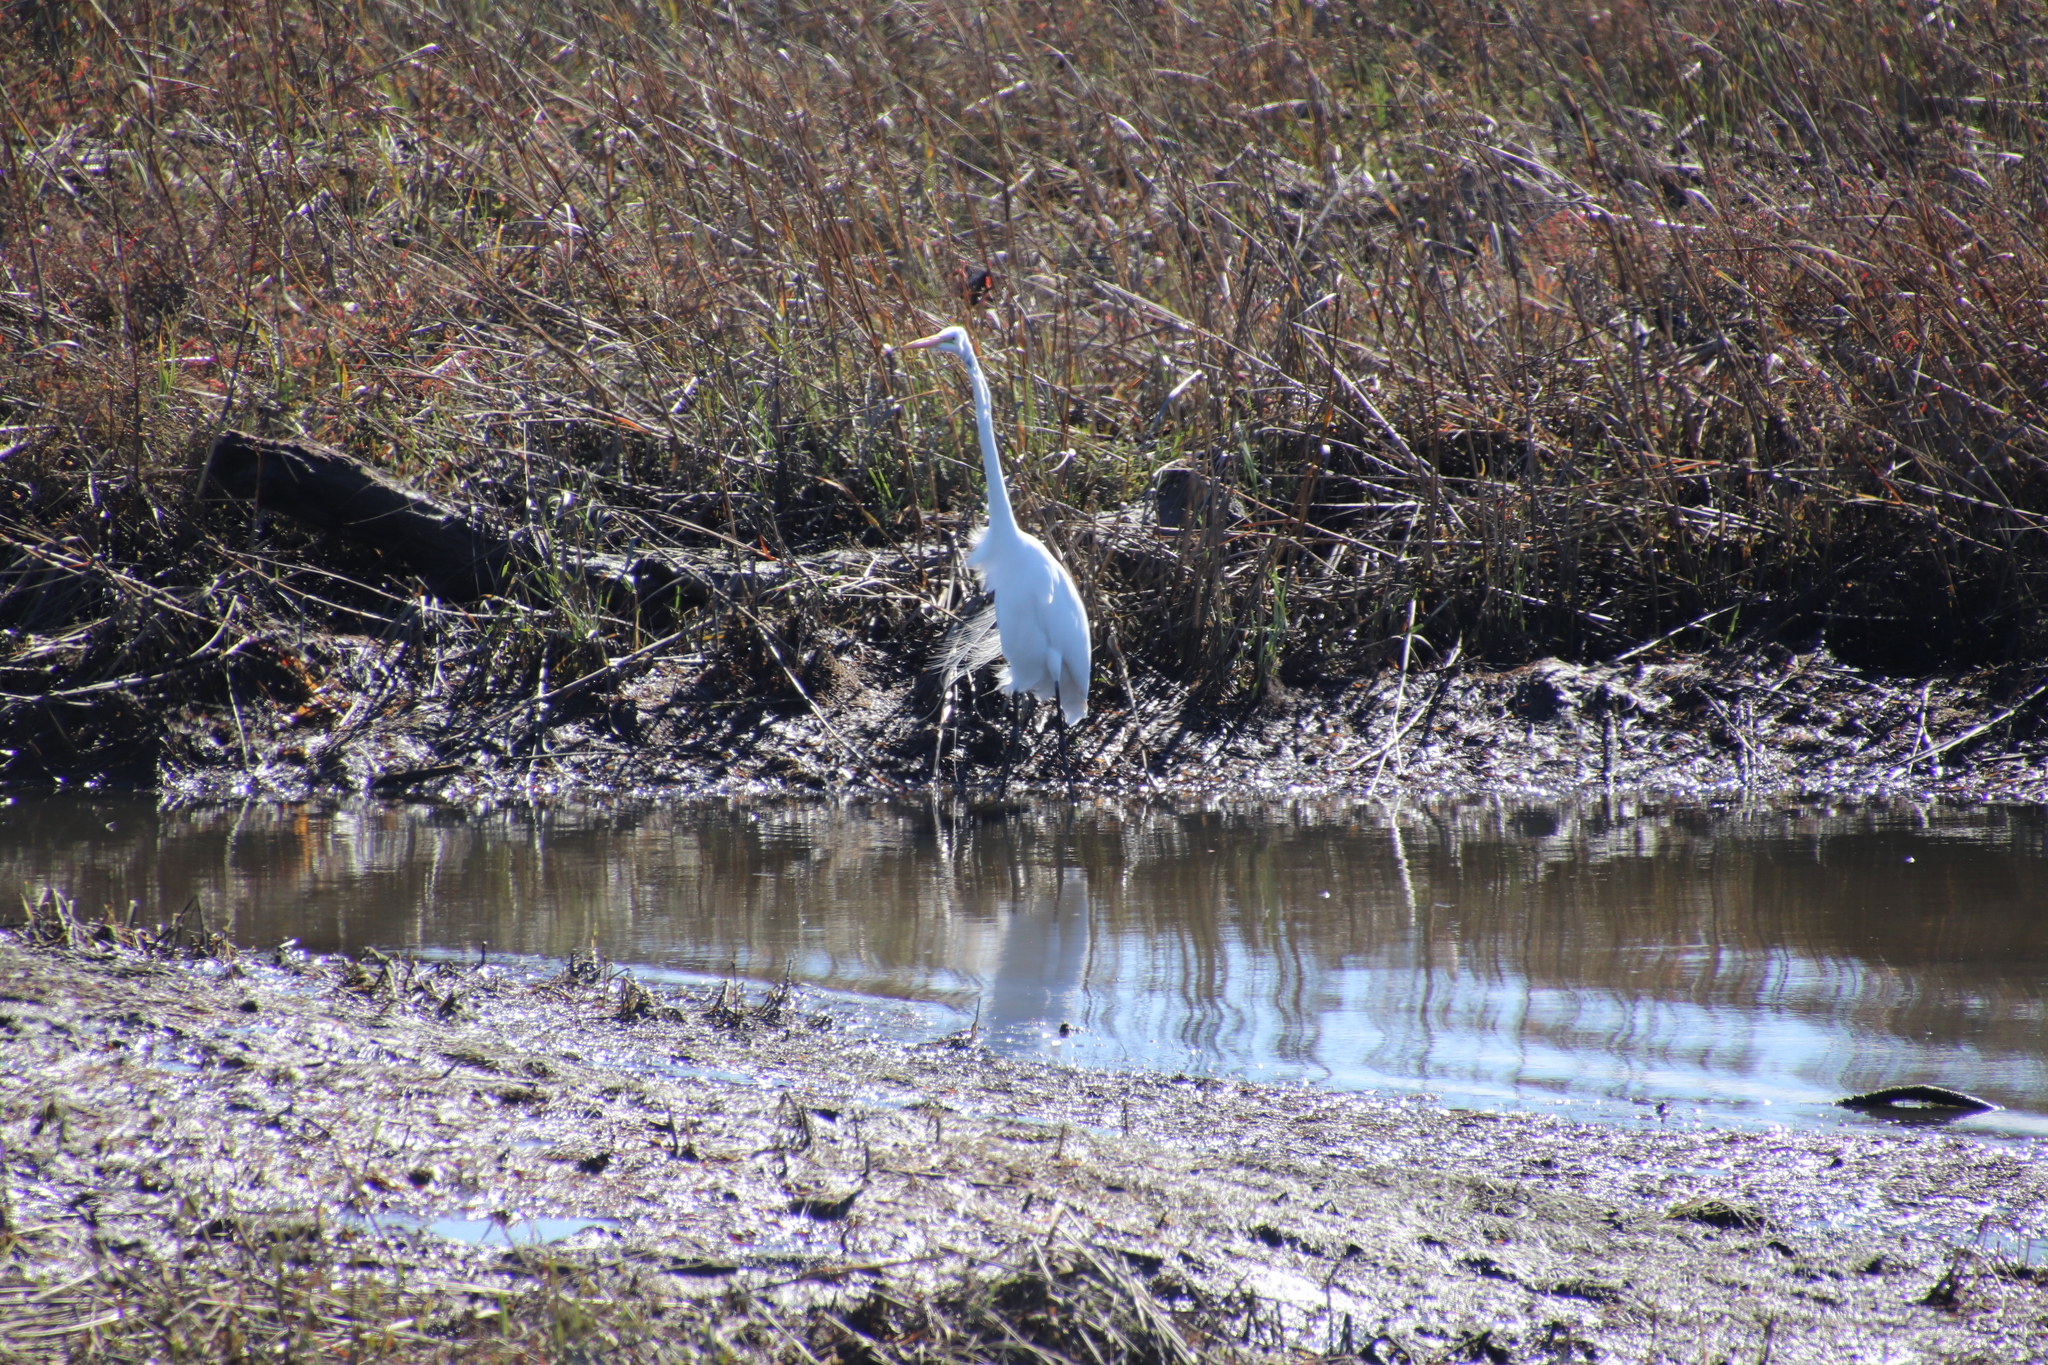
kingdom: Animalia
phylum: Chordata
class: Aves
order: Pelecaniformes
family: Ardeidae
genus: Ardea
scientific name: Ardea alba
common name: Great egret
